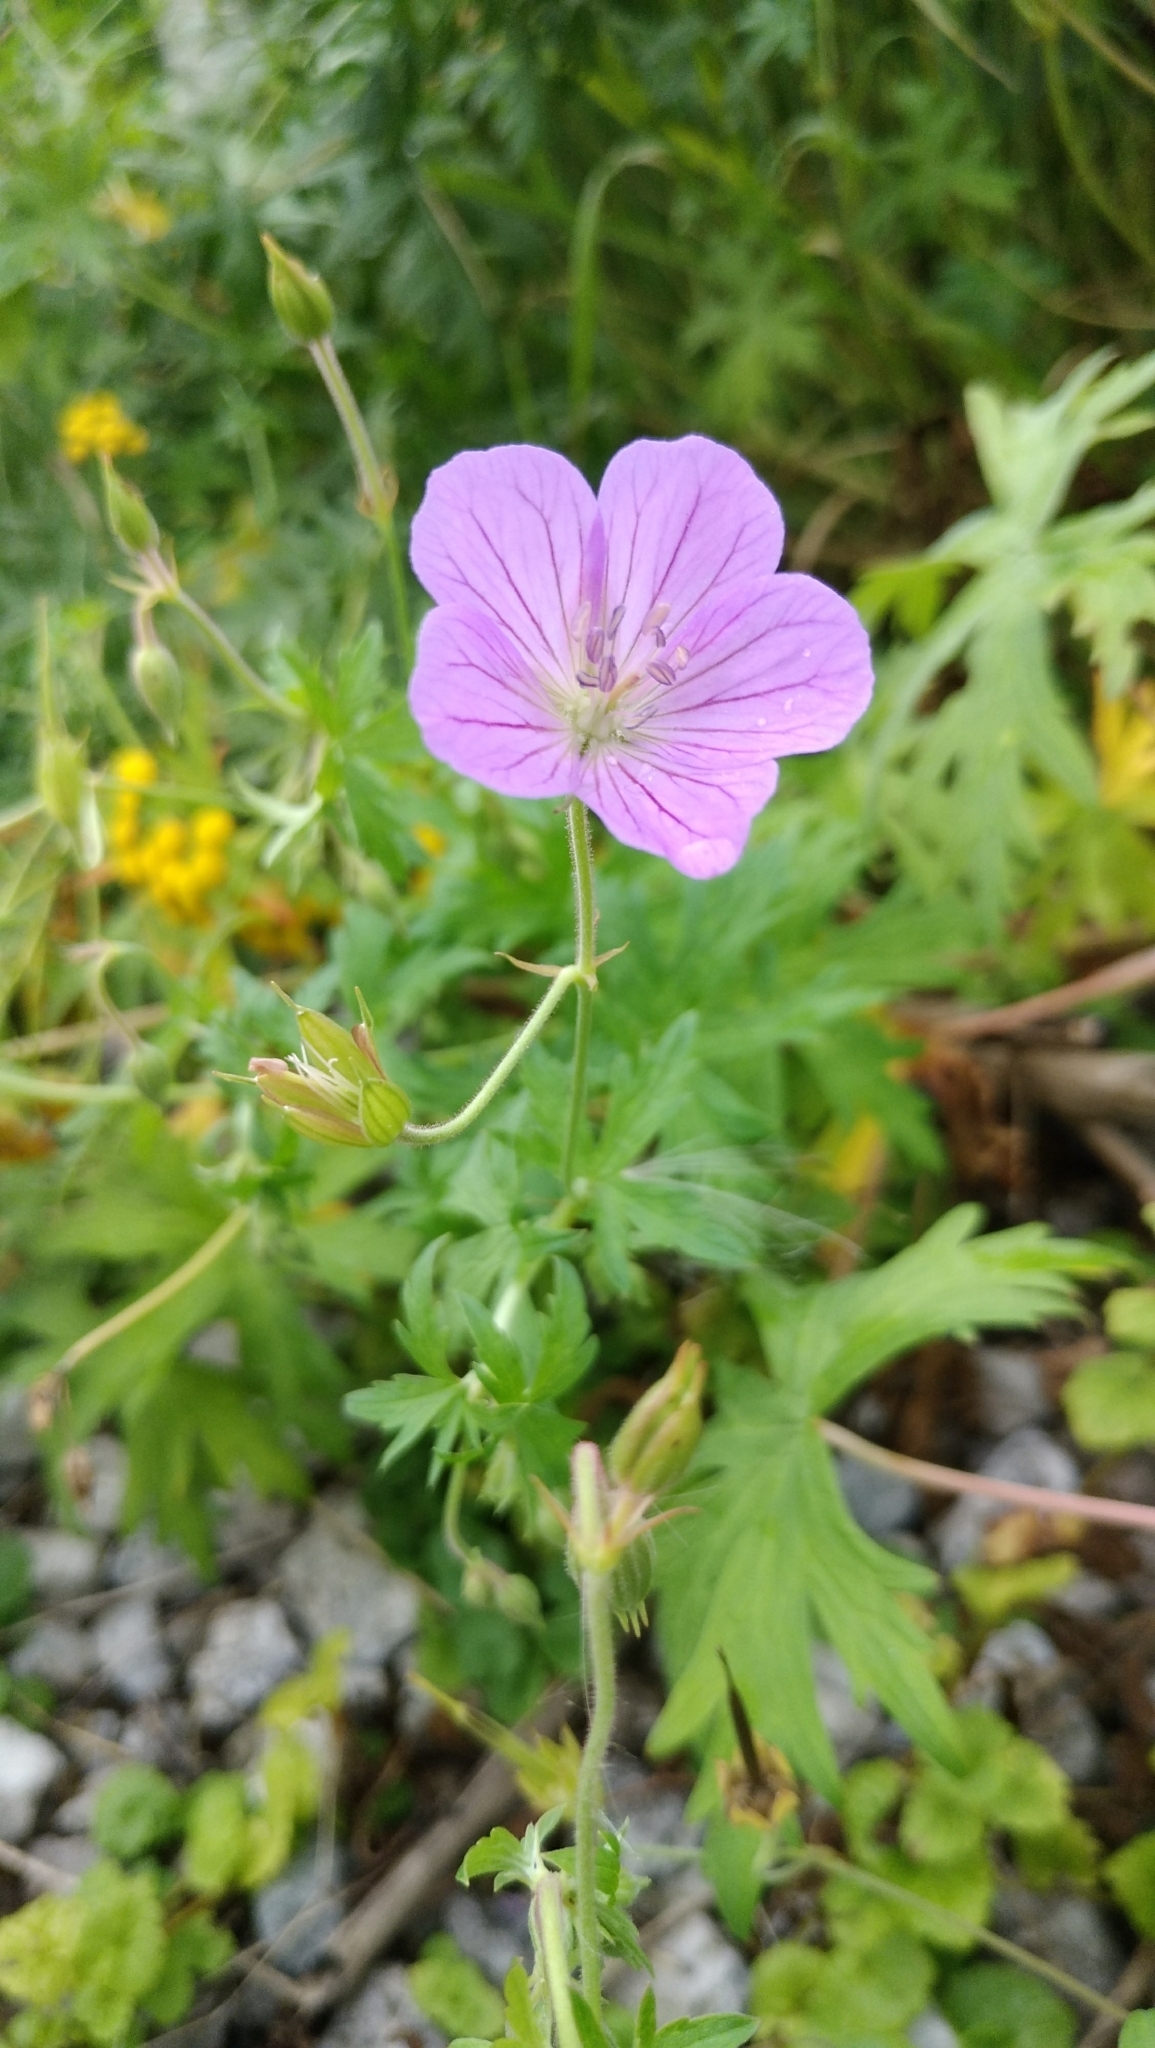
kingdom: Plantae
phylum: Tracheophyta
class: Magnoliopsida
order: Geraniales
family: Geraniaceae
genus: Geranium
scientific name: Geranium collinum
